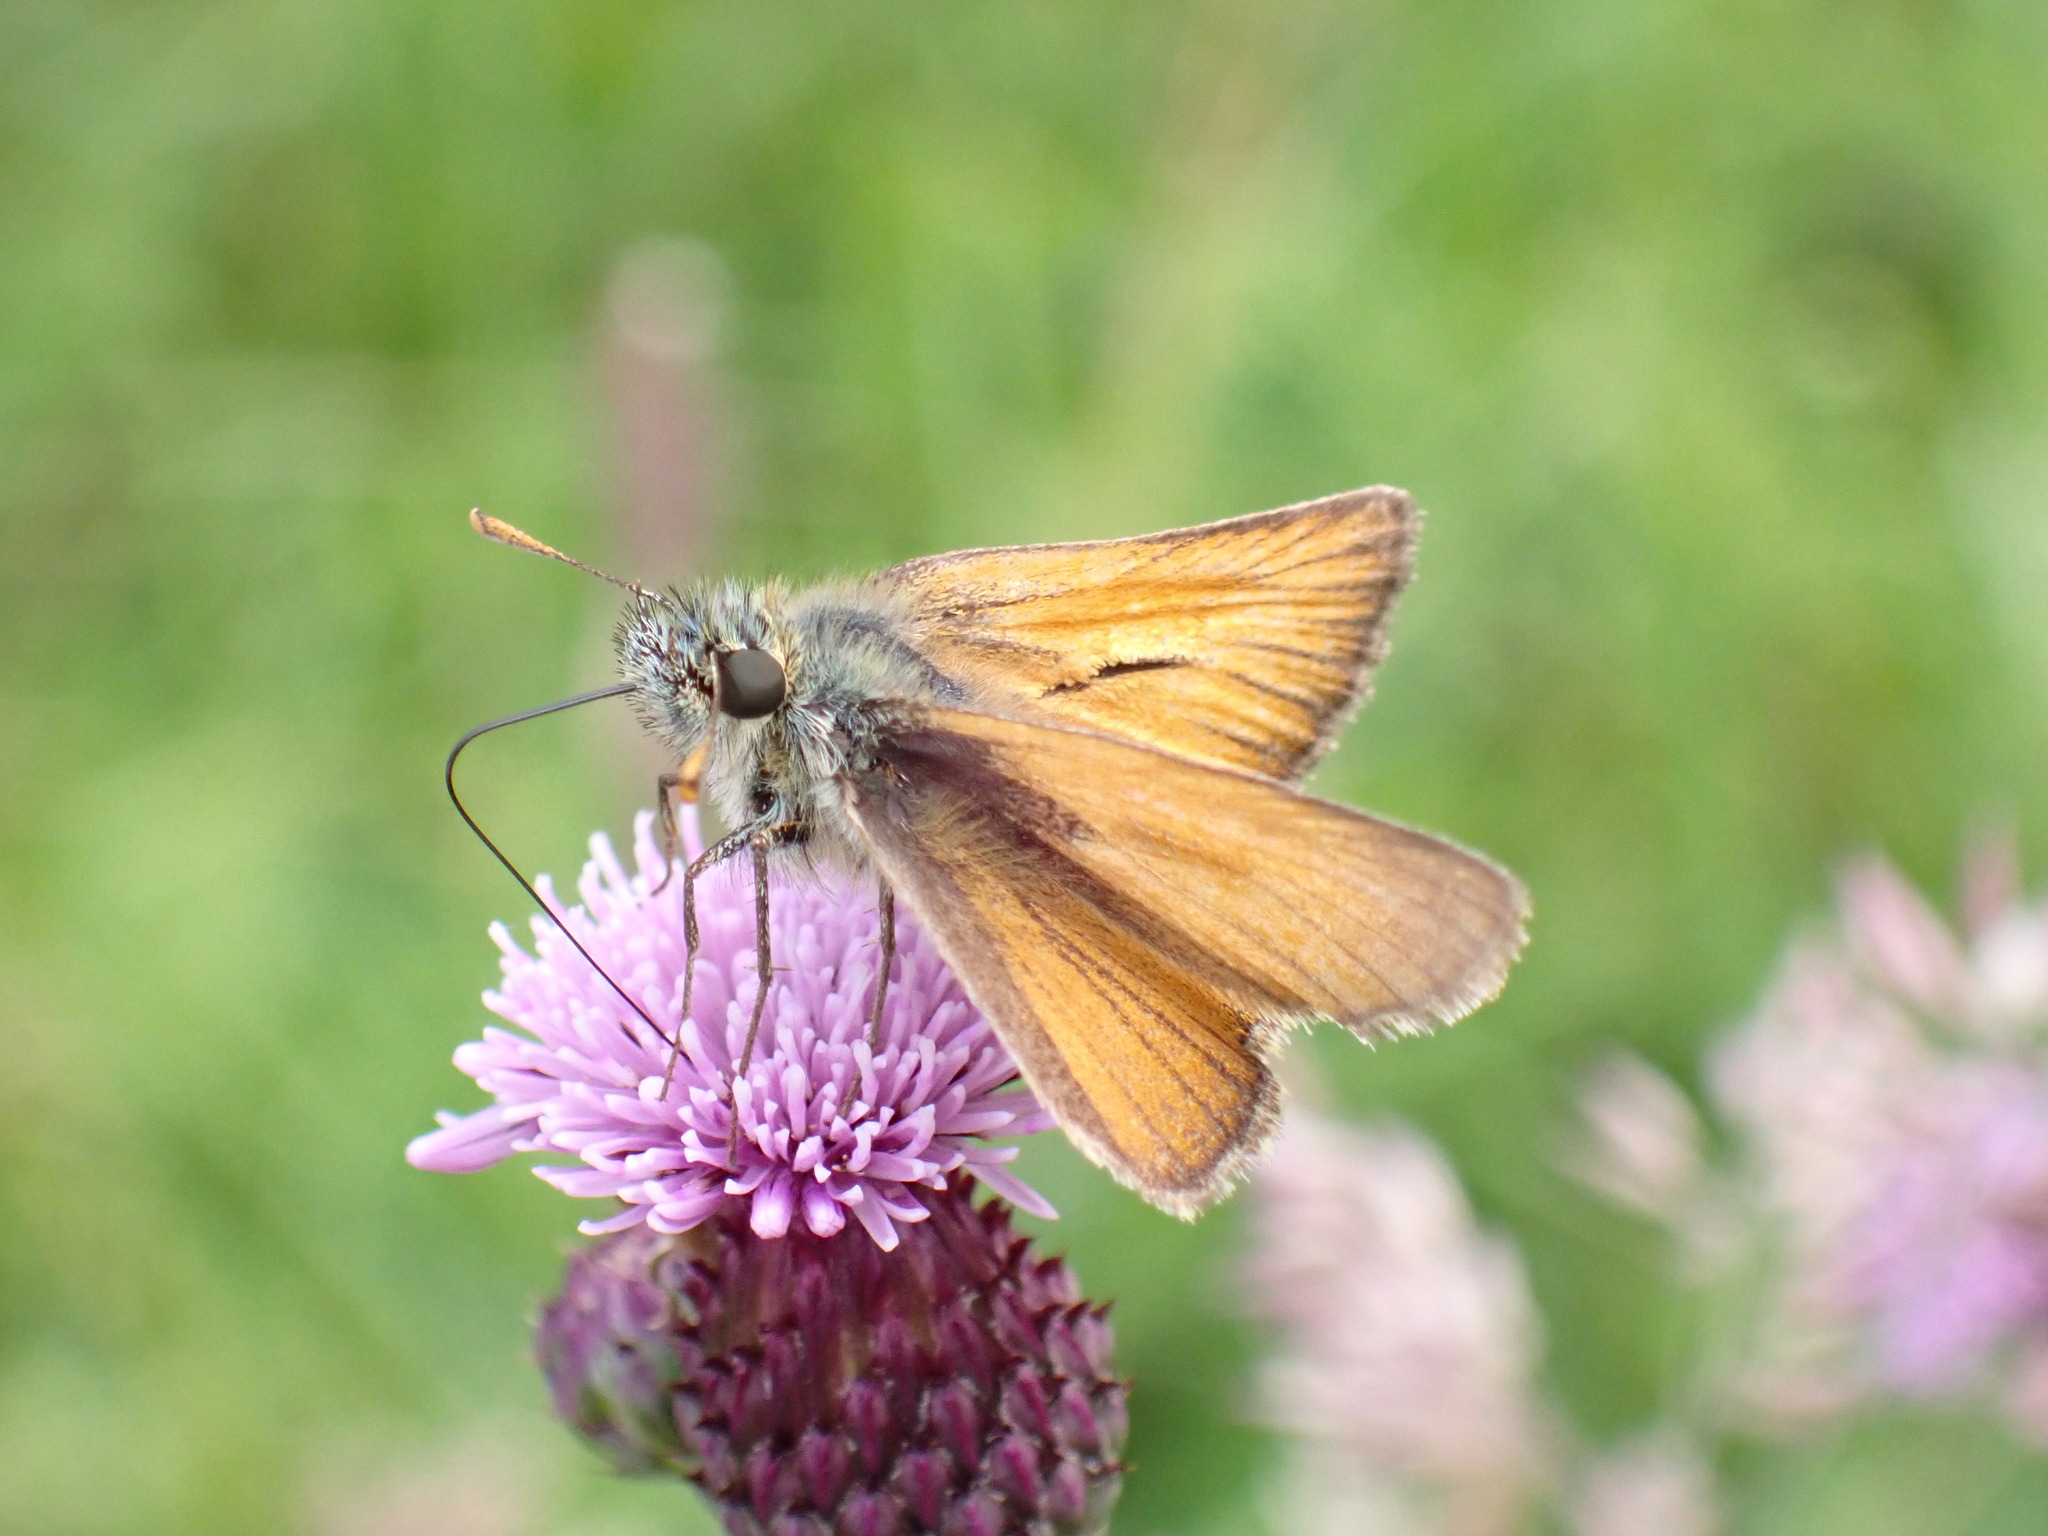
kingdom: Animalia
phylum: Arthropoda
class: Insecta
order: Lepidoptera
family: Hesperiidae
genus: Thymelicus
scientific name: Thymelicus sylvestris
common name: Small skipper
